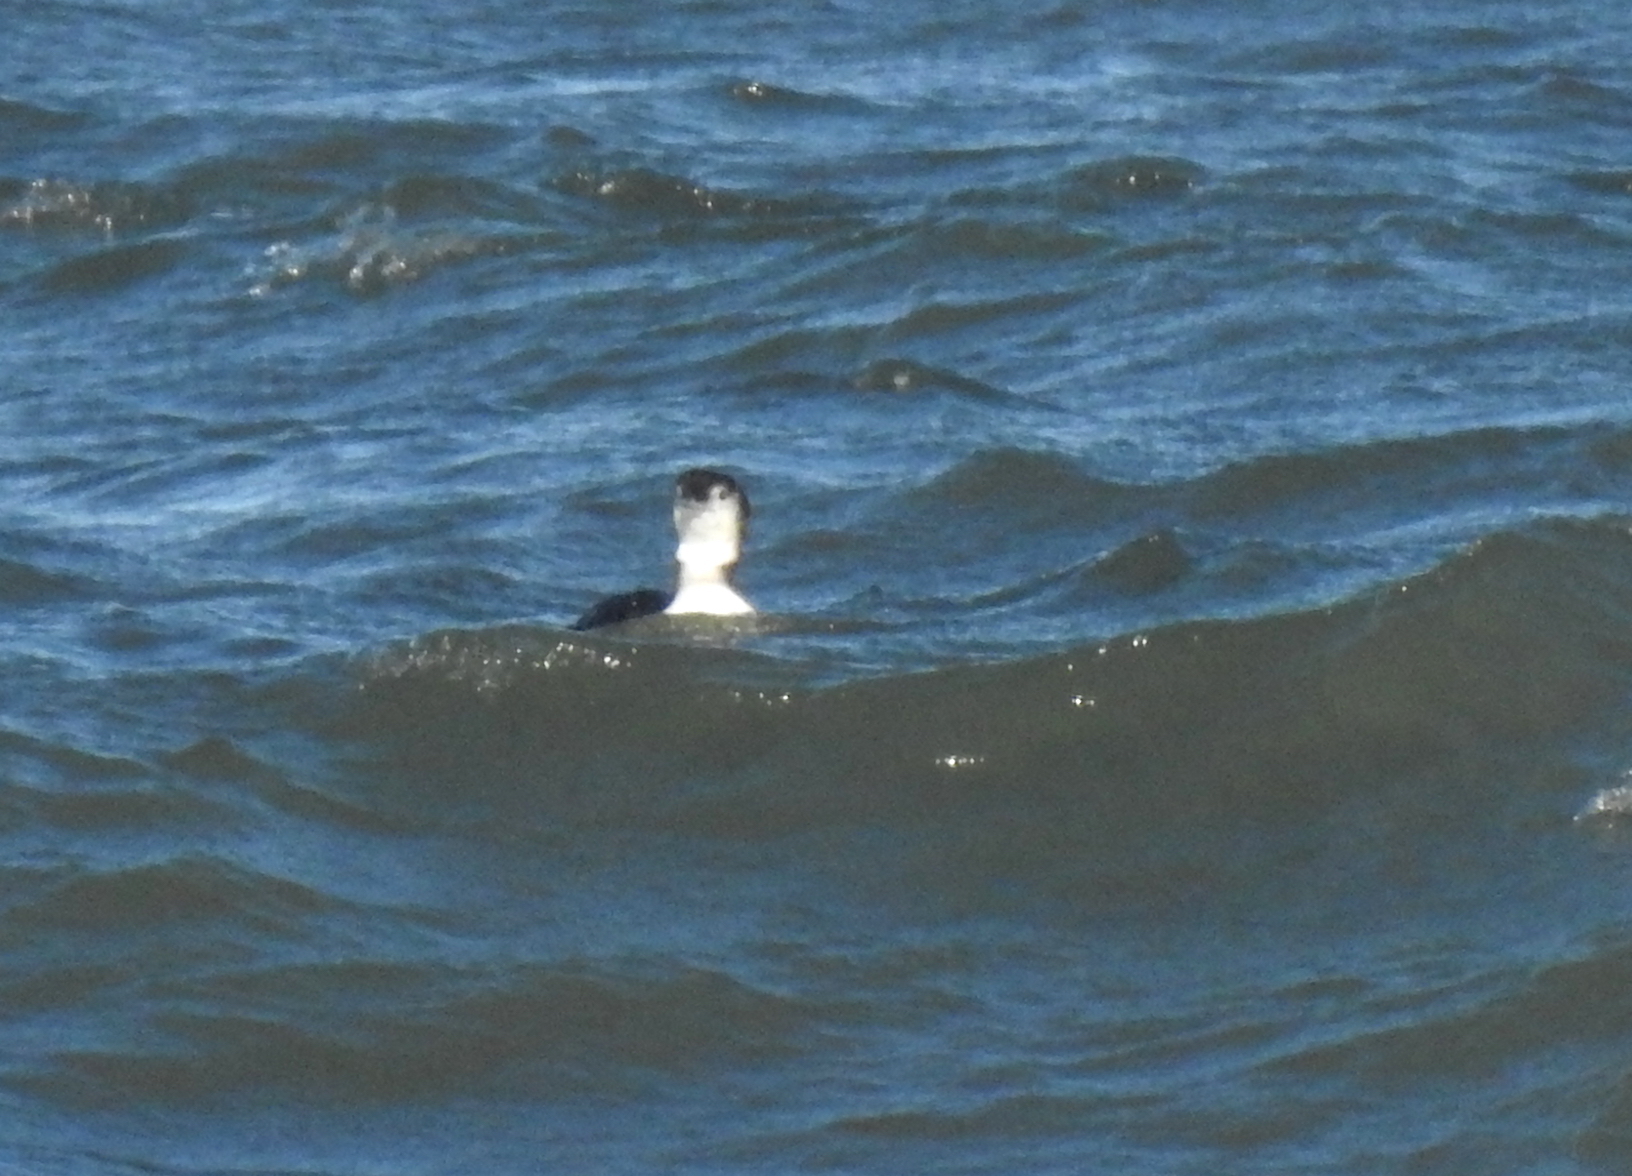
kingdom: Animalia
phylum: Chordata
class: Aves
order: Gaviiformes
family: Gaviidae
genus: Gavia
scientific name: Gavia immer
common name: Common loon
